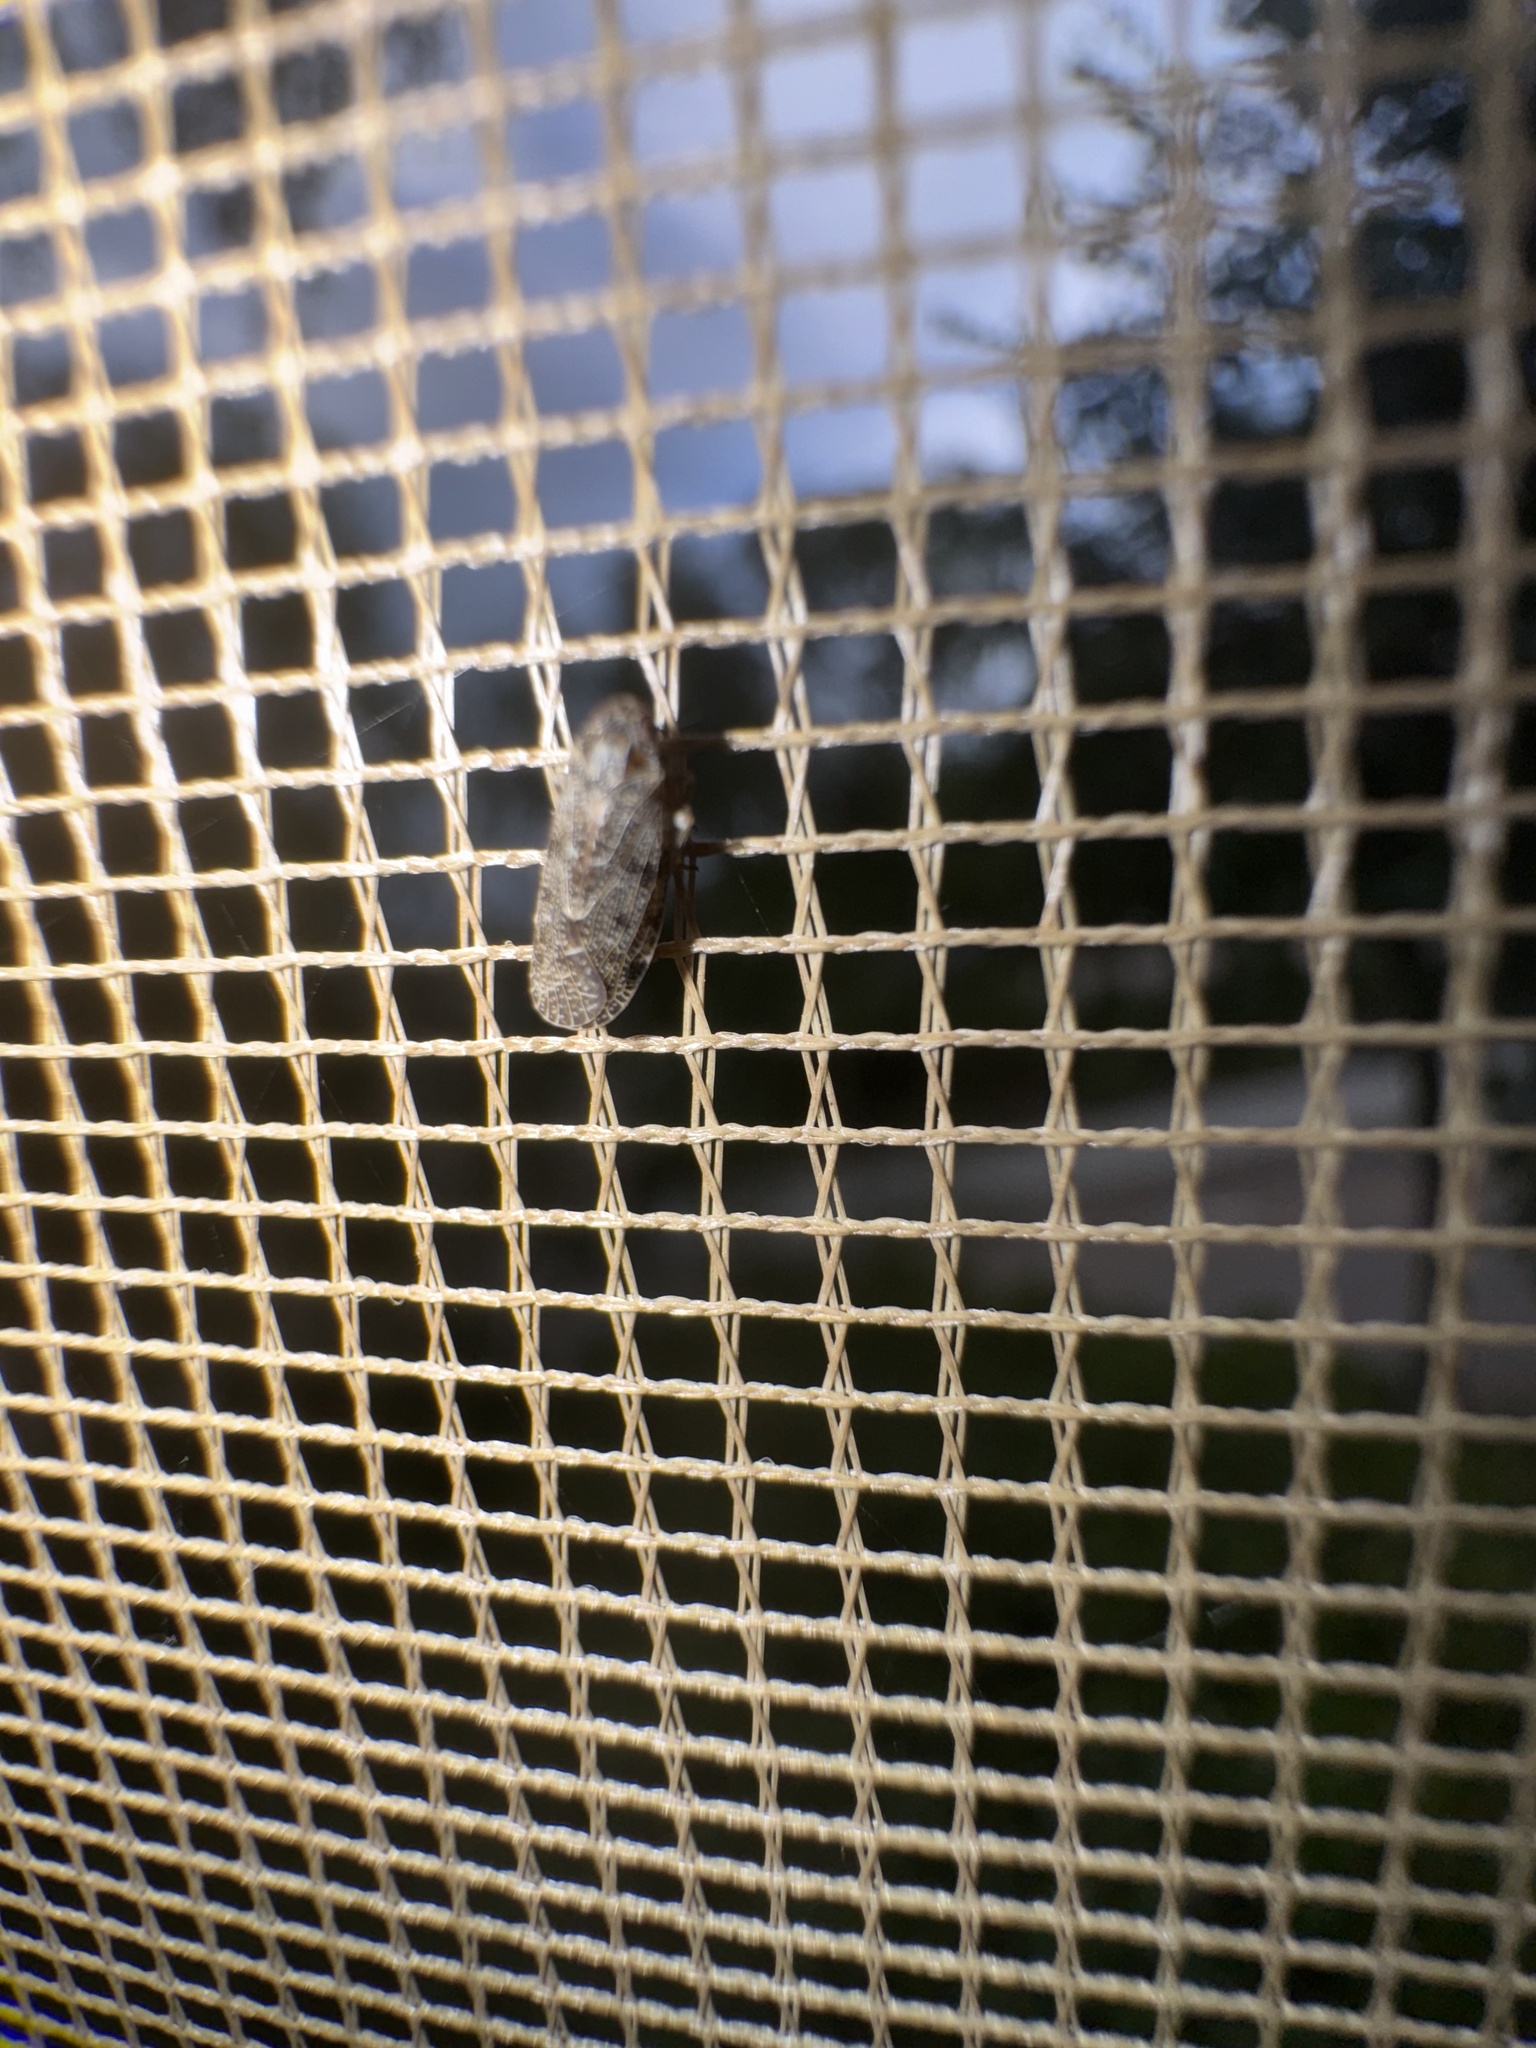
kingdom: Animalia
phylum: Arthropoda
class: Insecta
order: Hemiptera
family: Issidae
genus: Issus
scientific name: Issus coleoptratus
